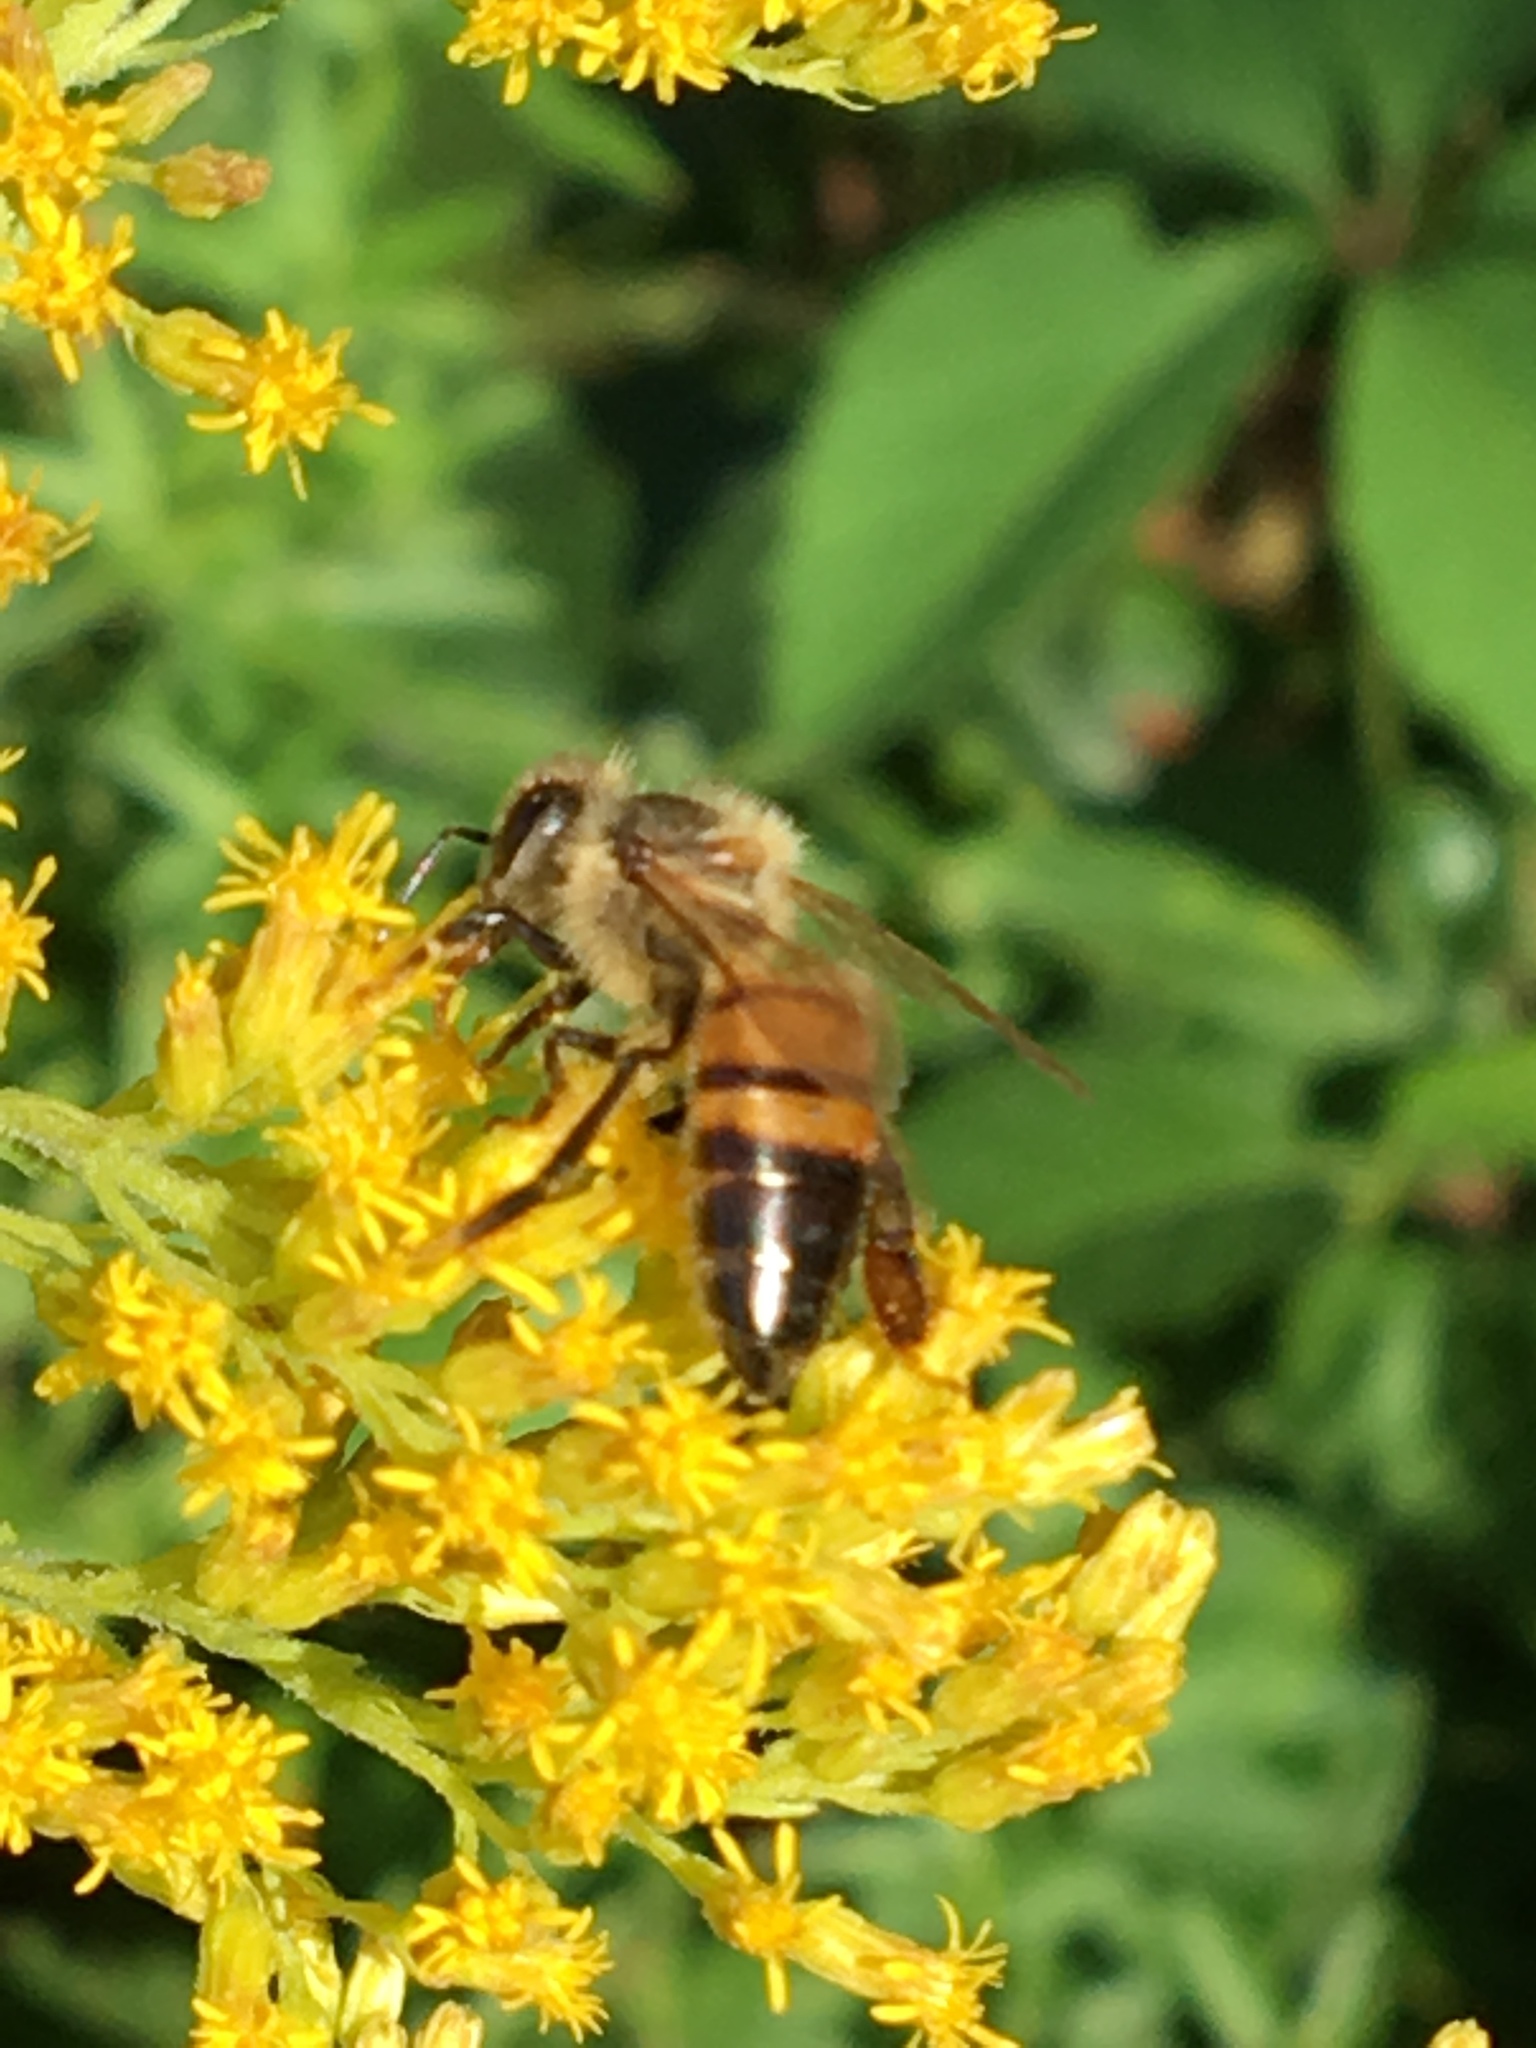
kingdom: Animalia
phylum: Arthropoda
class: Insecta
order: Hymenoptera
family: Apidae
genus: Apis
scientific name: Apis mellifera
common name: Honey bee
